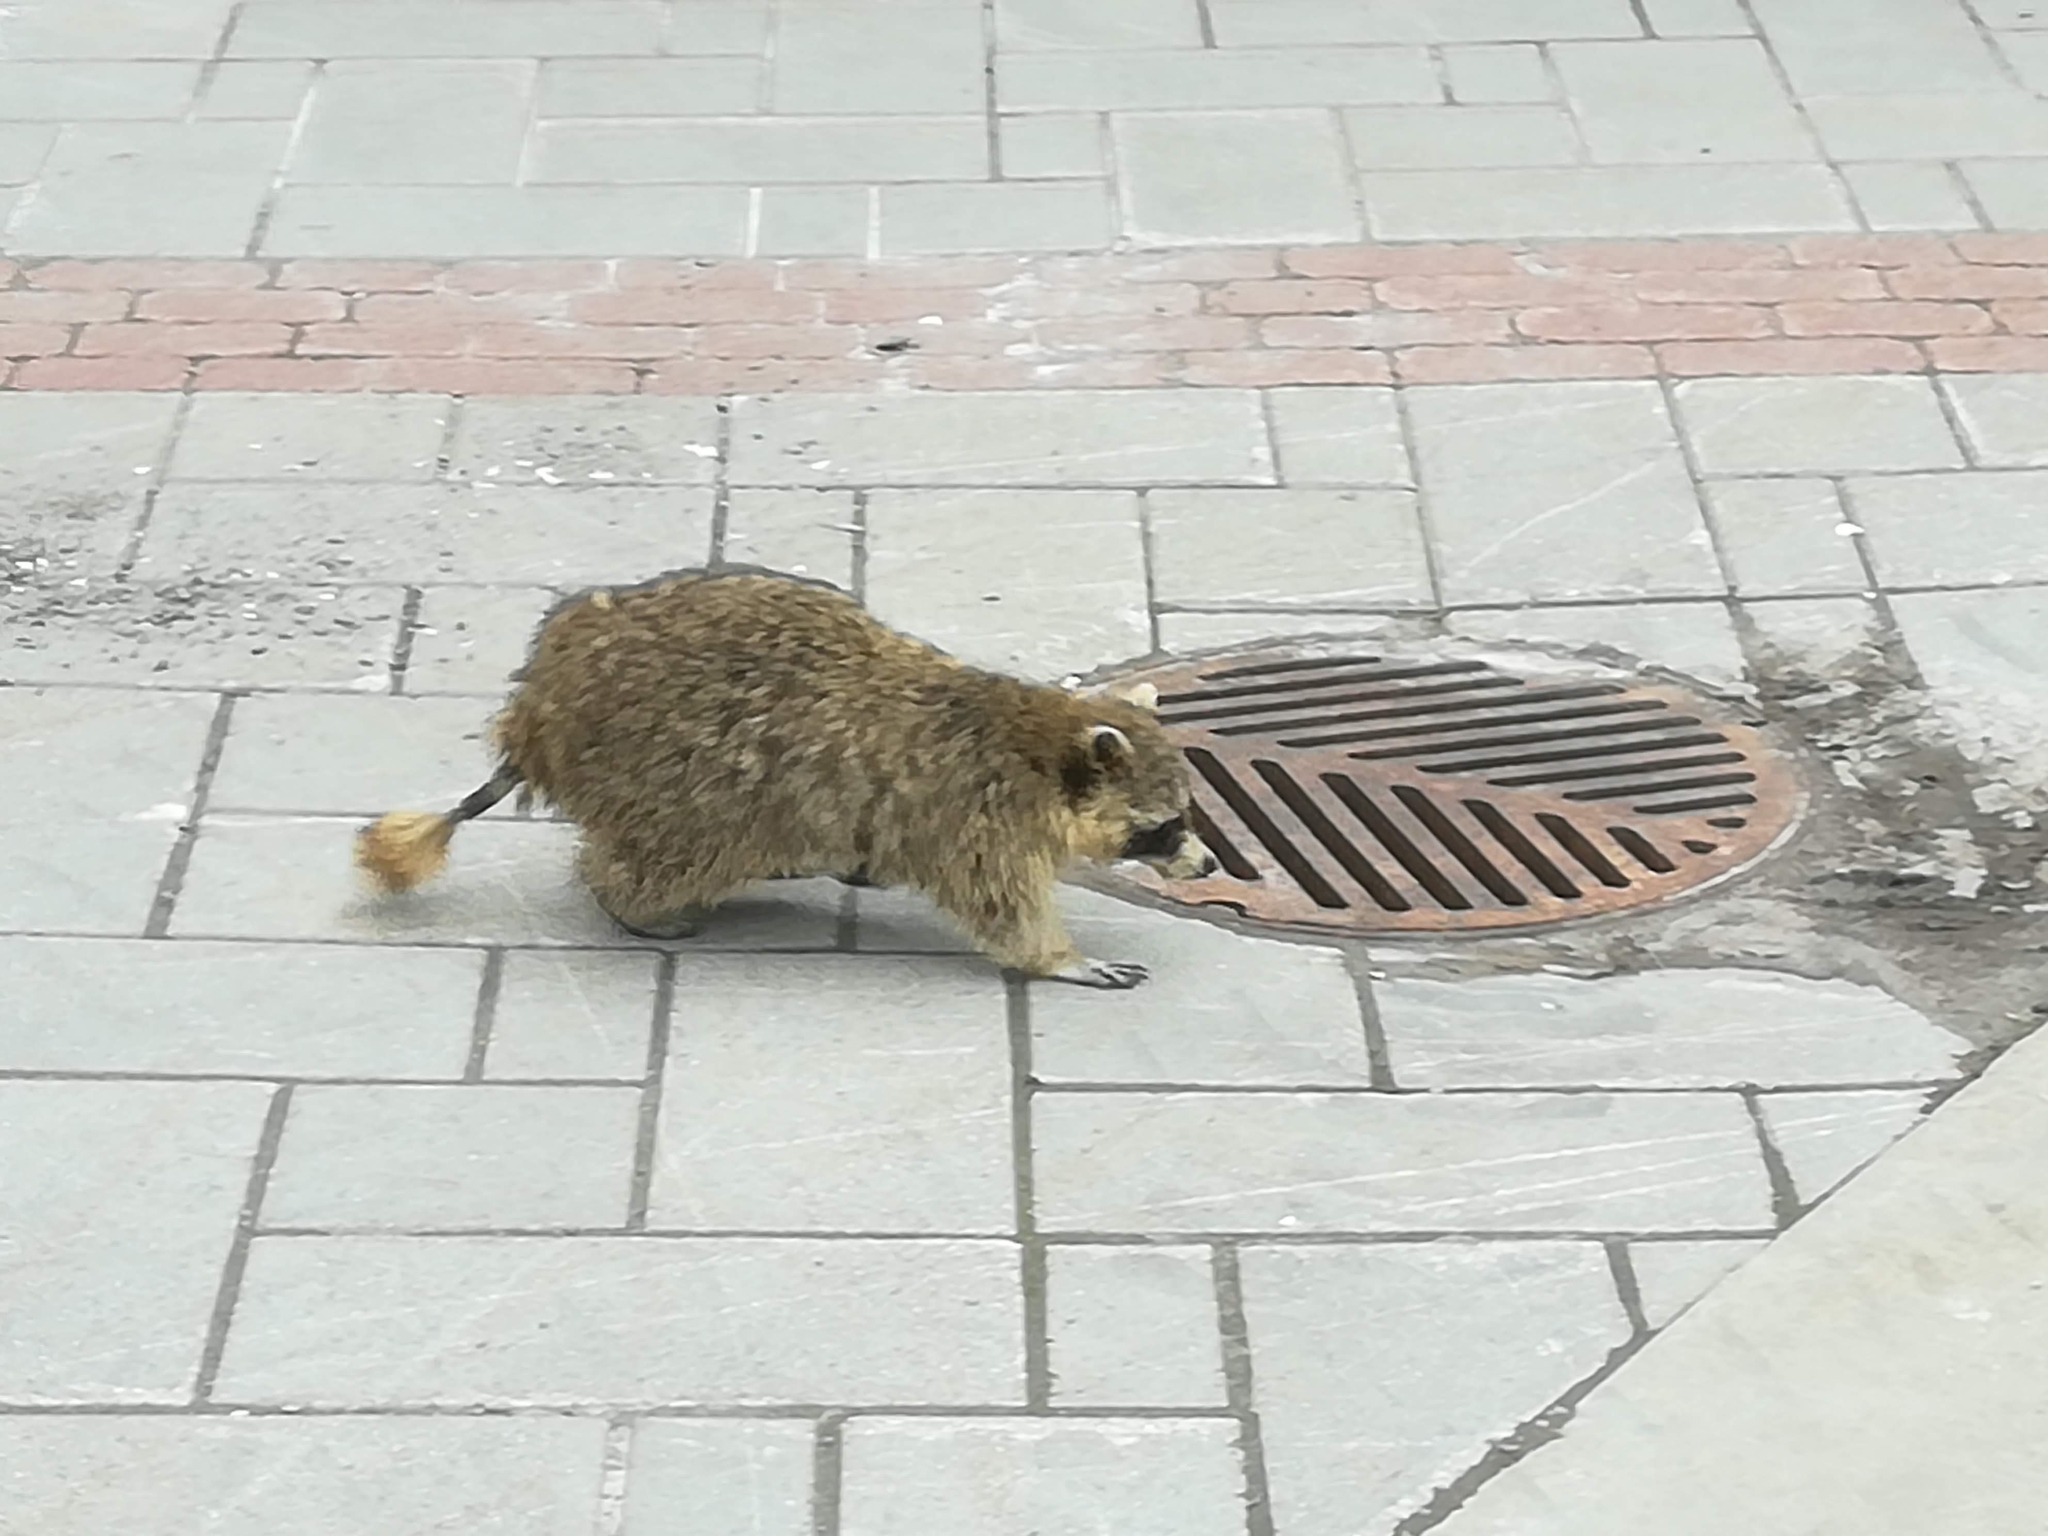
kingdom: Animalia
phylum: Chordata
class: Mammalia
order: Carnivora
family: Procyonidae
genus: Procyon
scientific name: Procyon lotor
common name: Raccoon
